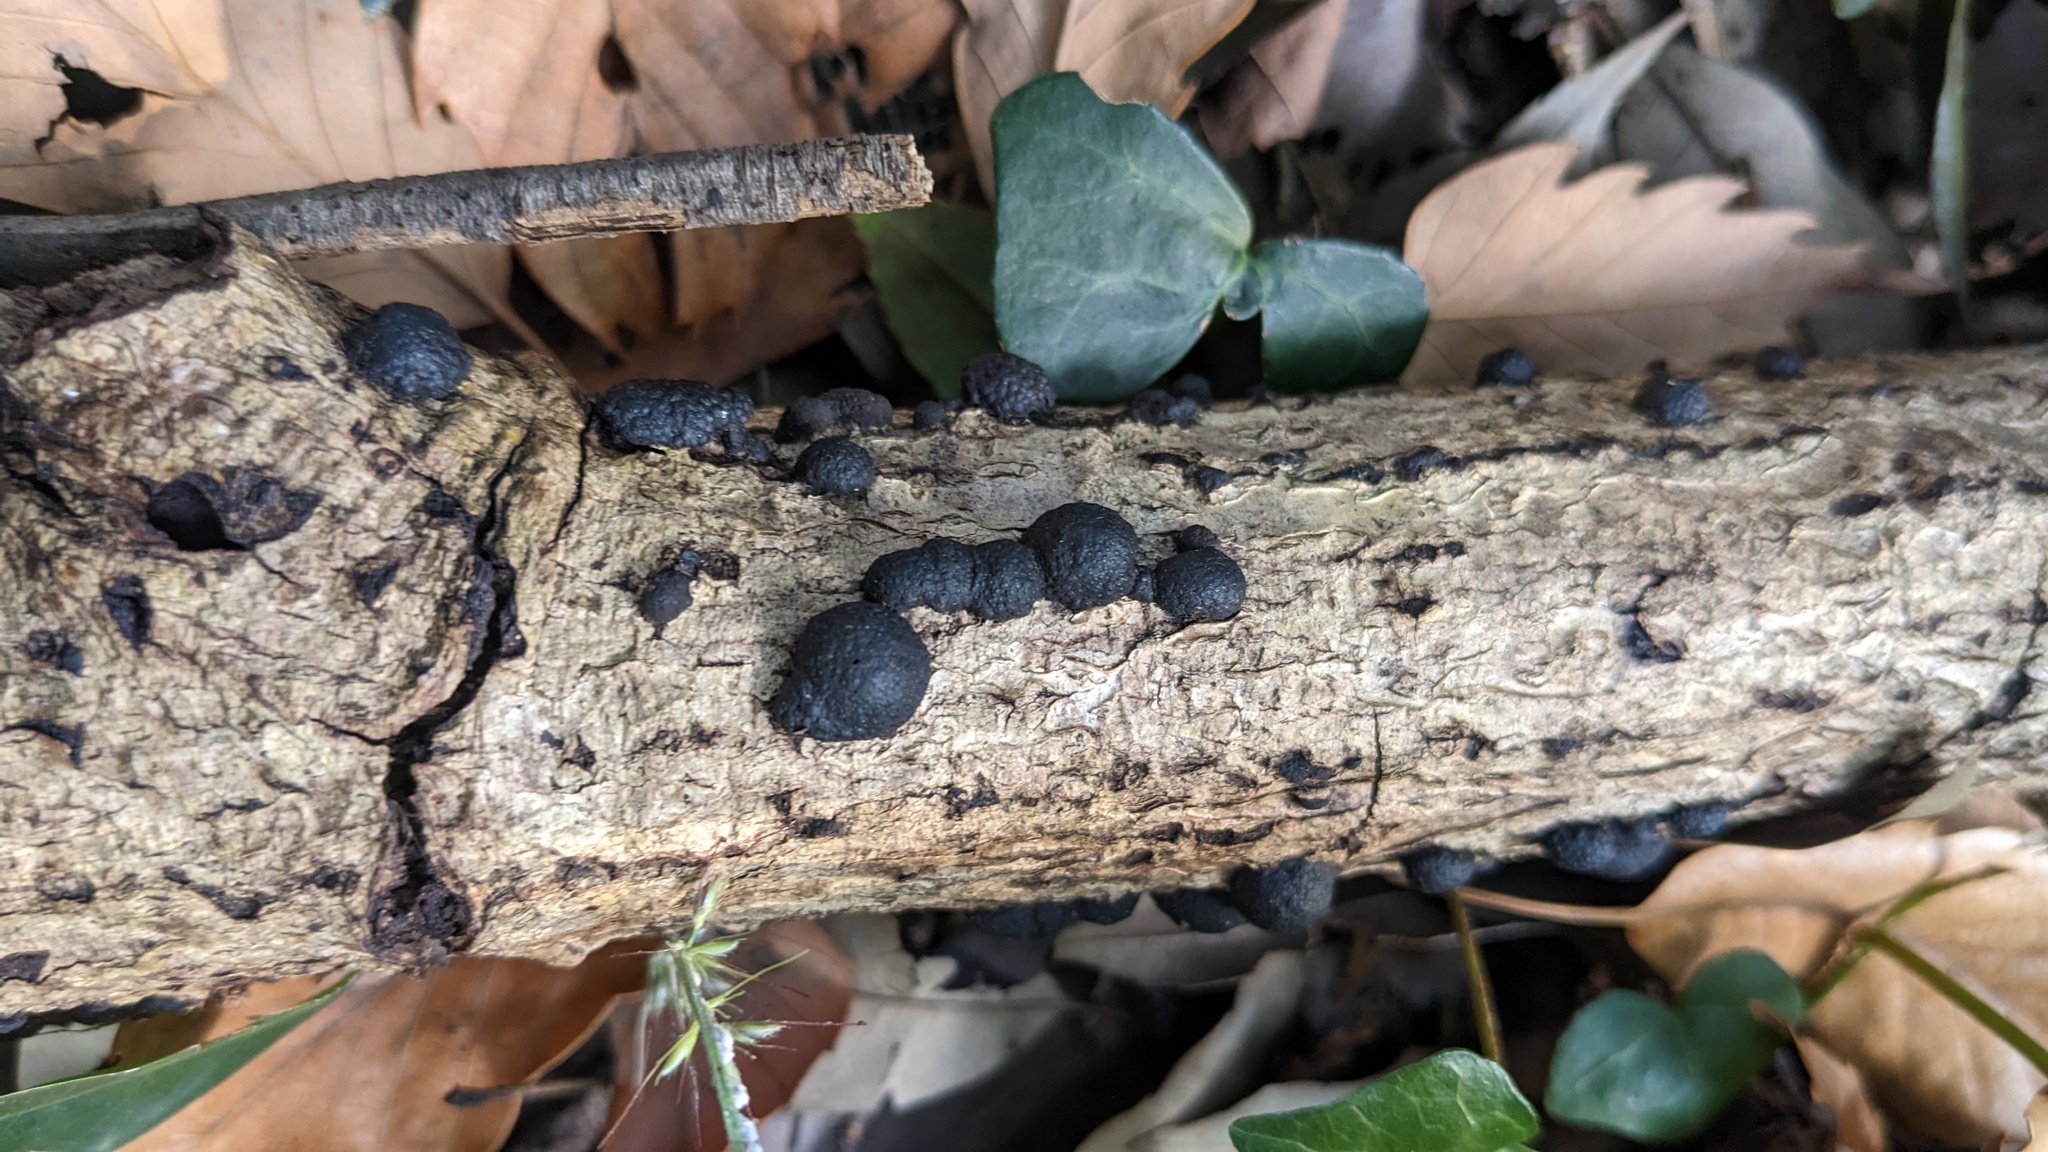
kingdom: Fungi
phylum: Ascomycota
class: Sordariomycetes
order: Xylariales
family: Hypoxylaceae
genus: Annulohypoxylon
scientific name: Annulohypoxylon truncatum
